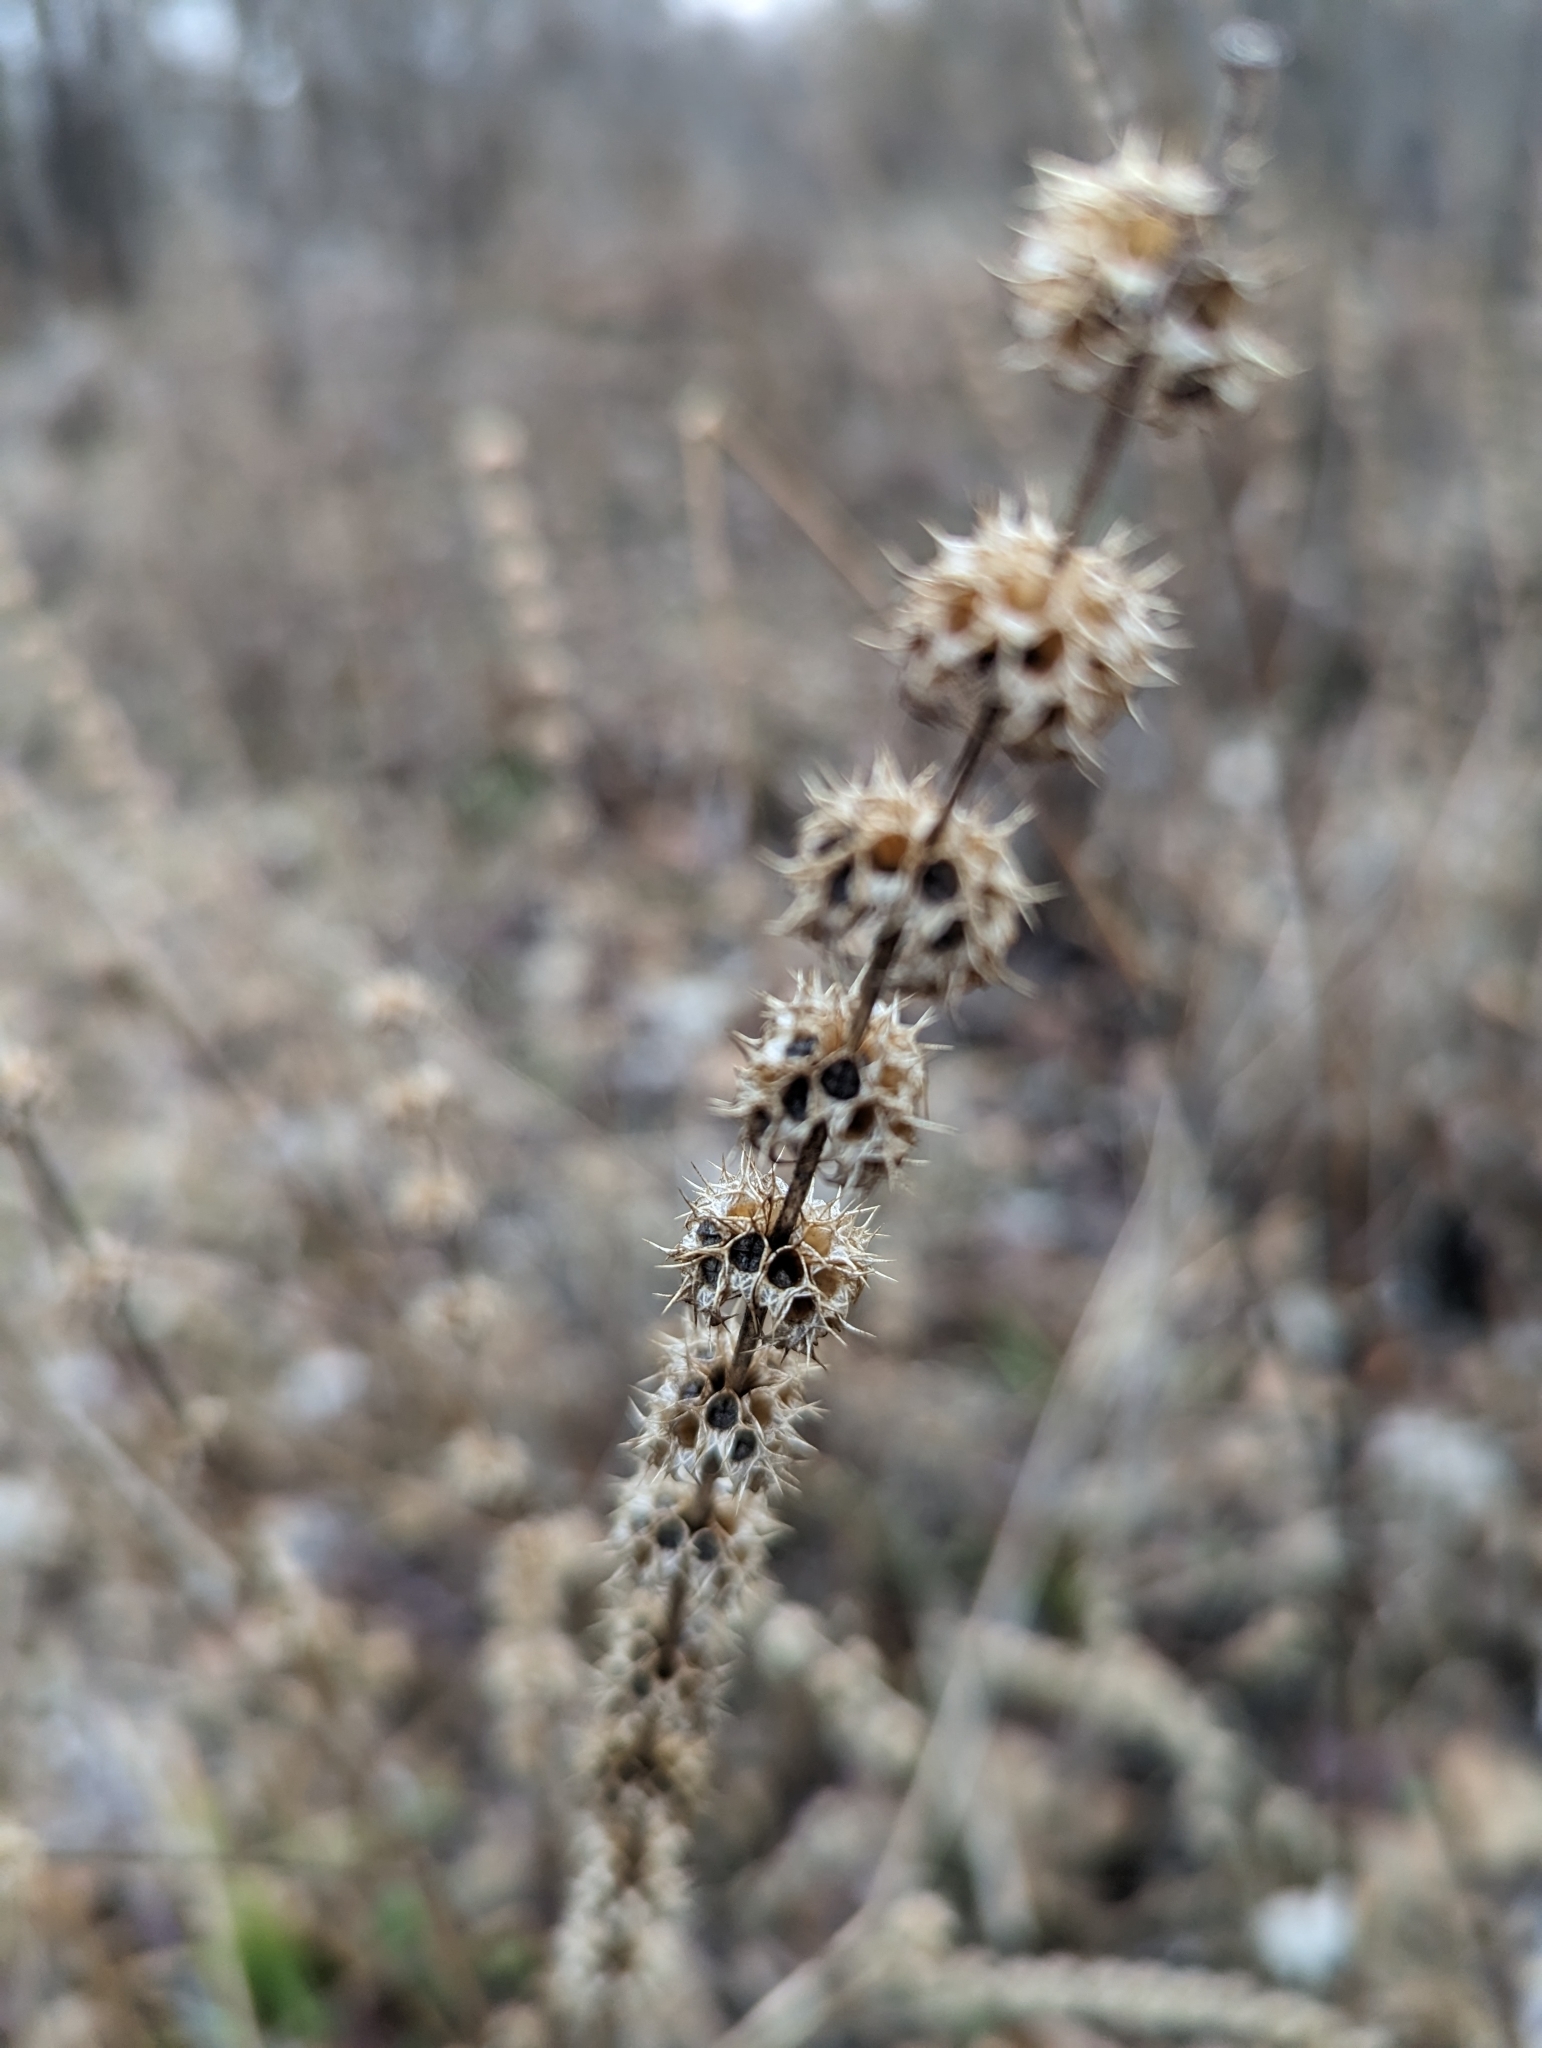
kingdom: Plantae
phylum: Tracheophyta
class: Magnoliopsida
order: Lamiales
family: Lamiaceae
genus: Leonurus
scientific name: Leonurus cardiaca
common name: Motherwort
